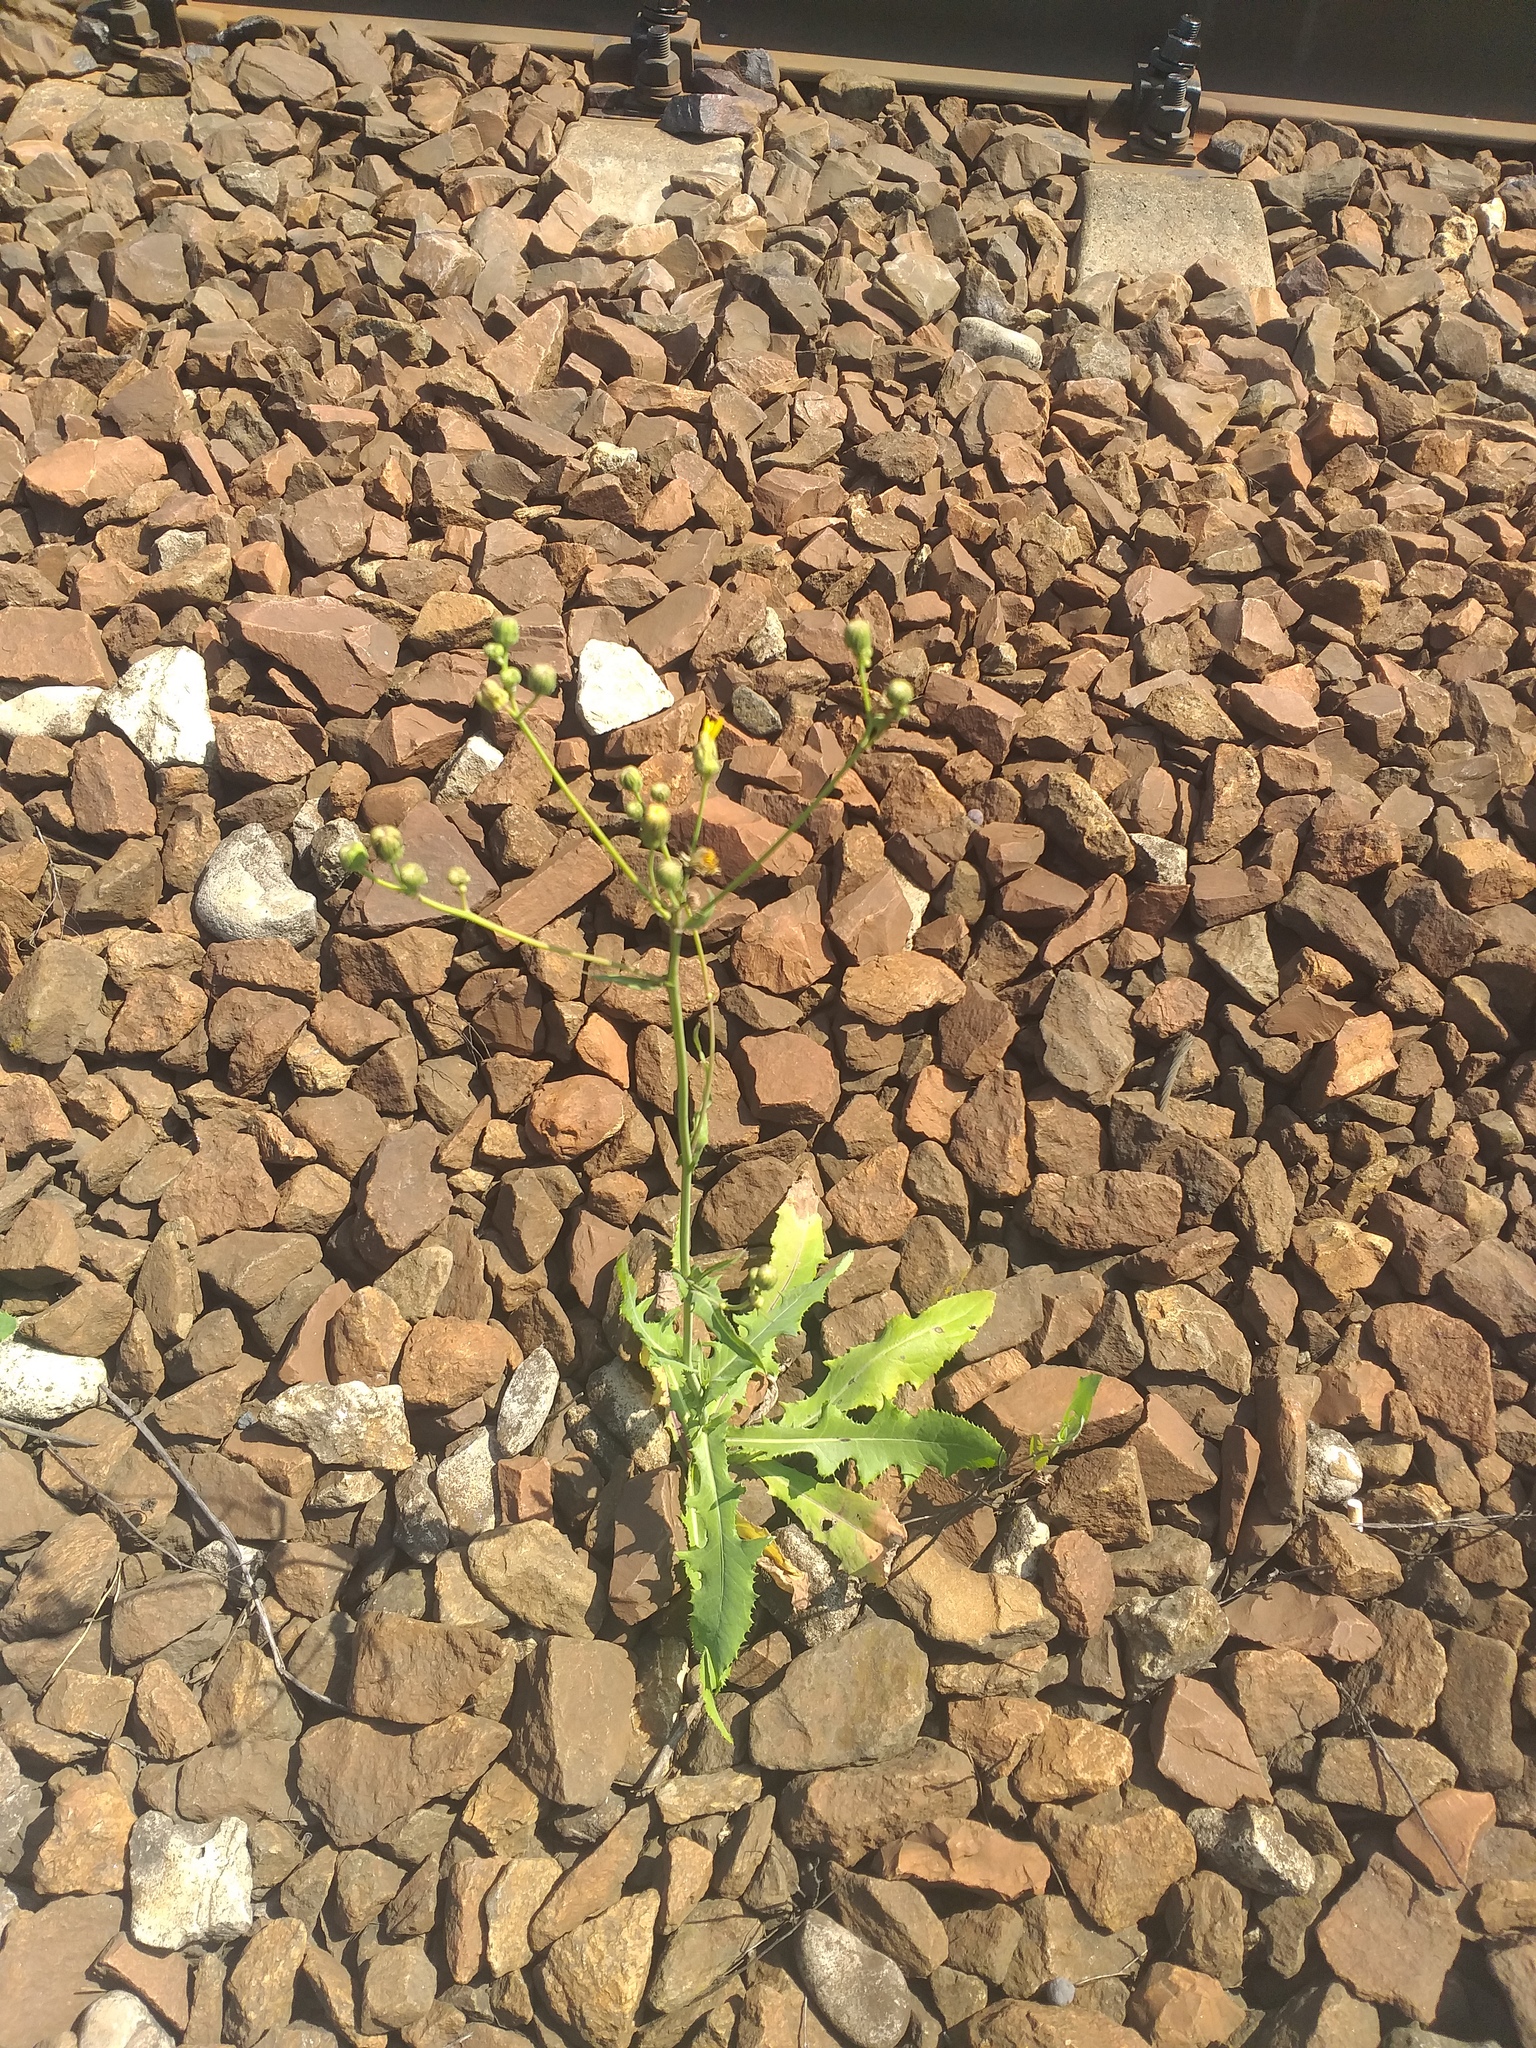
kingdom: Plantae
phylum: Tracheophyta
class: Magnoliopsida
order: Asterales
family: Asteraceae
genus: Sonchus
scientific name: Sonchus arvensis
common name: Perennial sow-thistle
